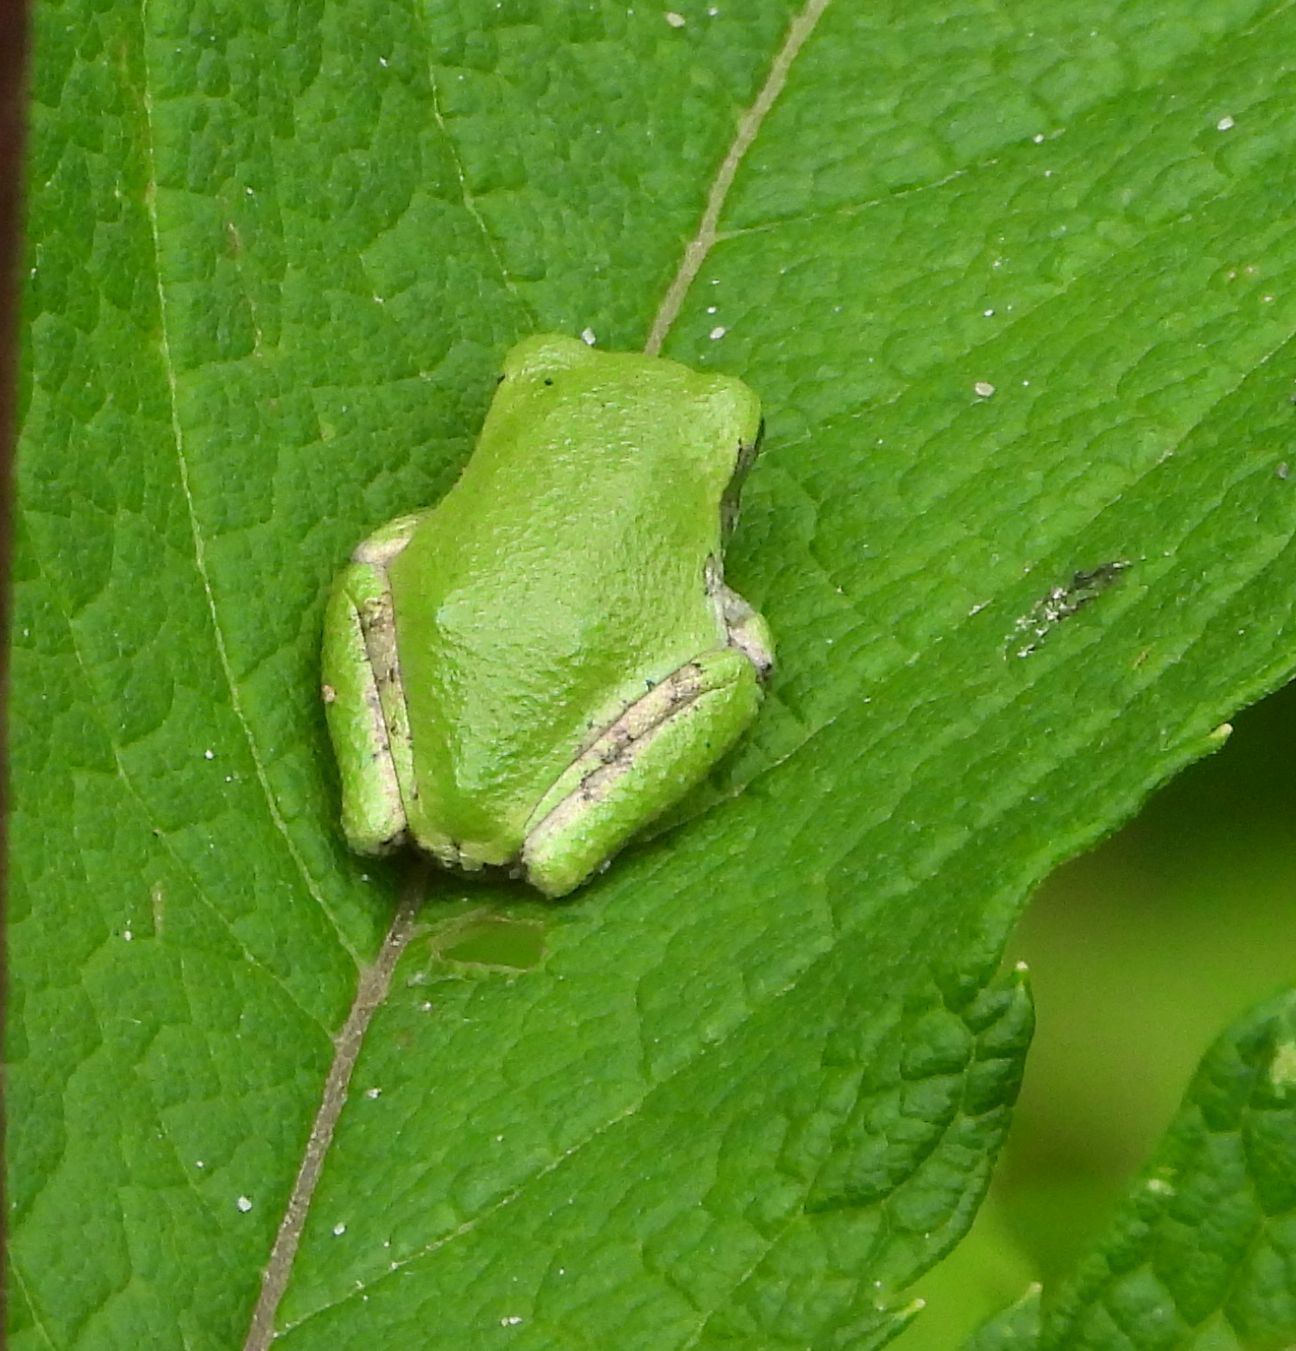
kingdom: Animalia
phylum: Chordata
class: Amphibia
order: Anura
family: Hylidae
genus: Dryophytes
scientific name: Dryophytes versicolor
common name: Gray treefrog
